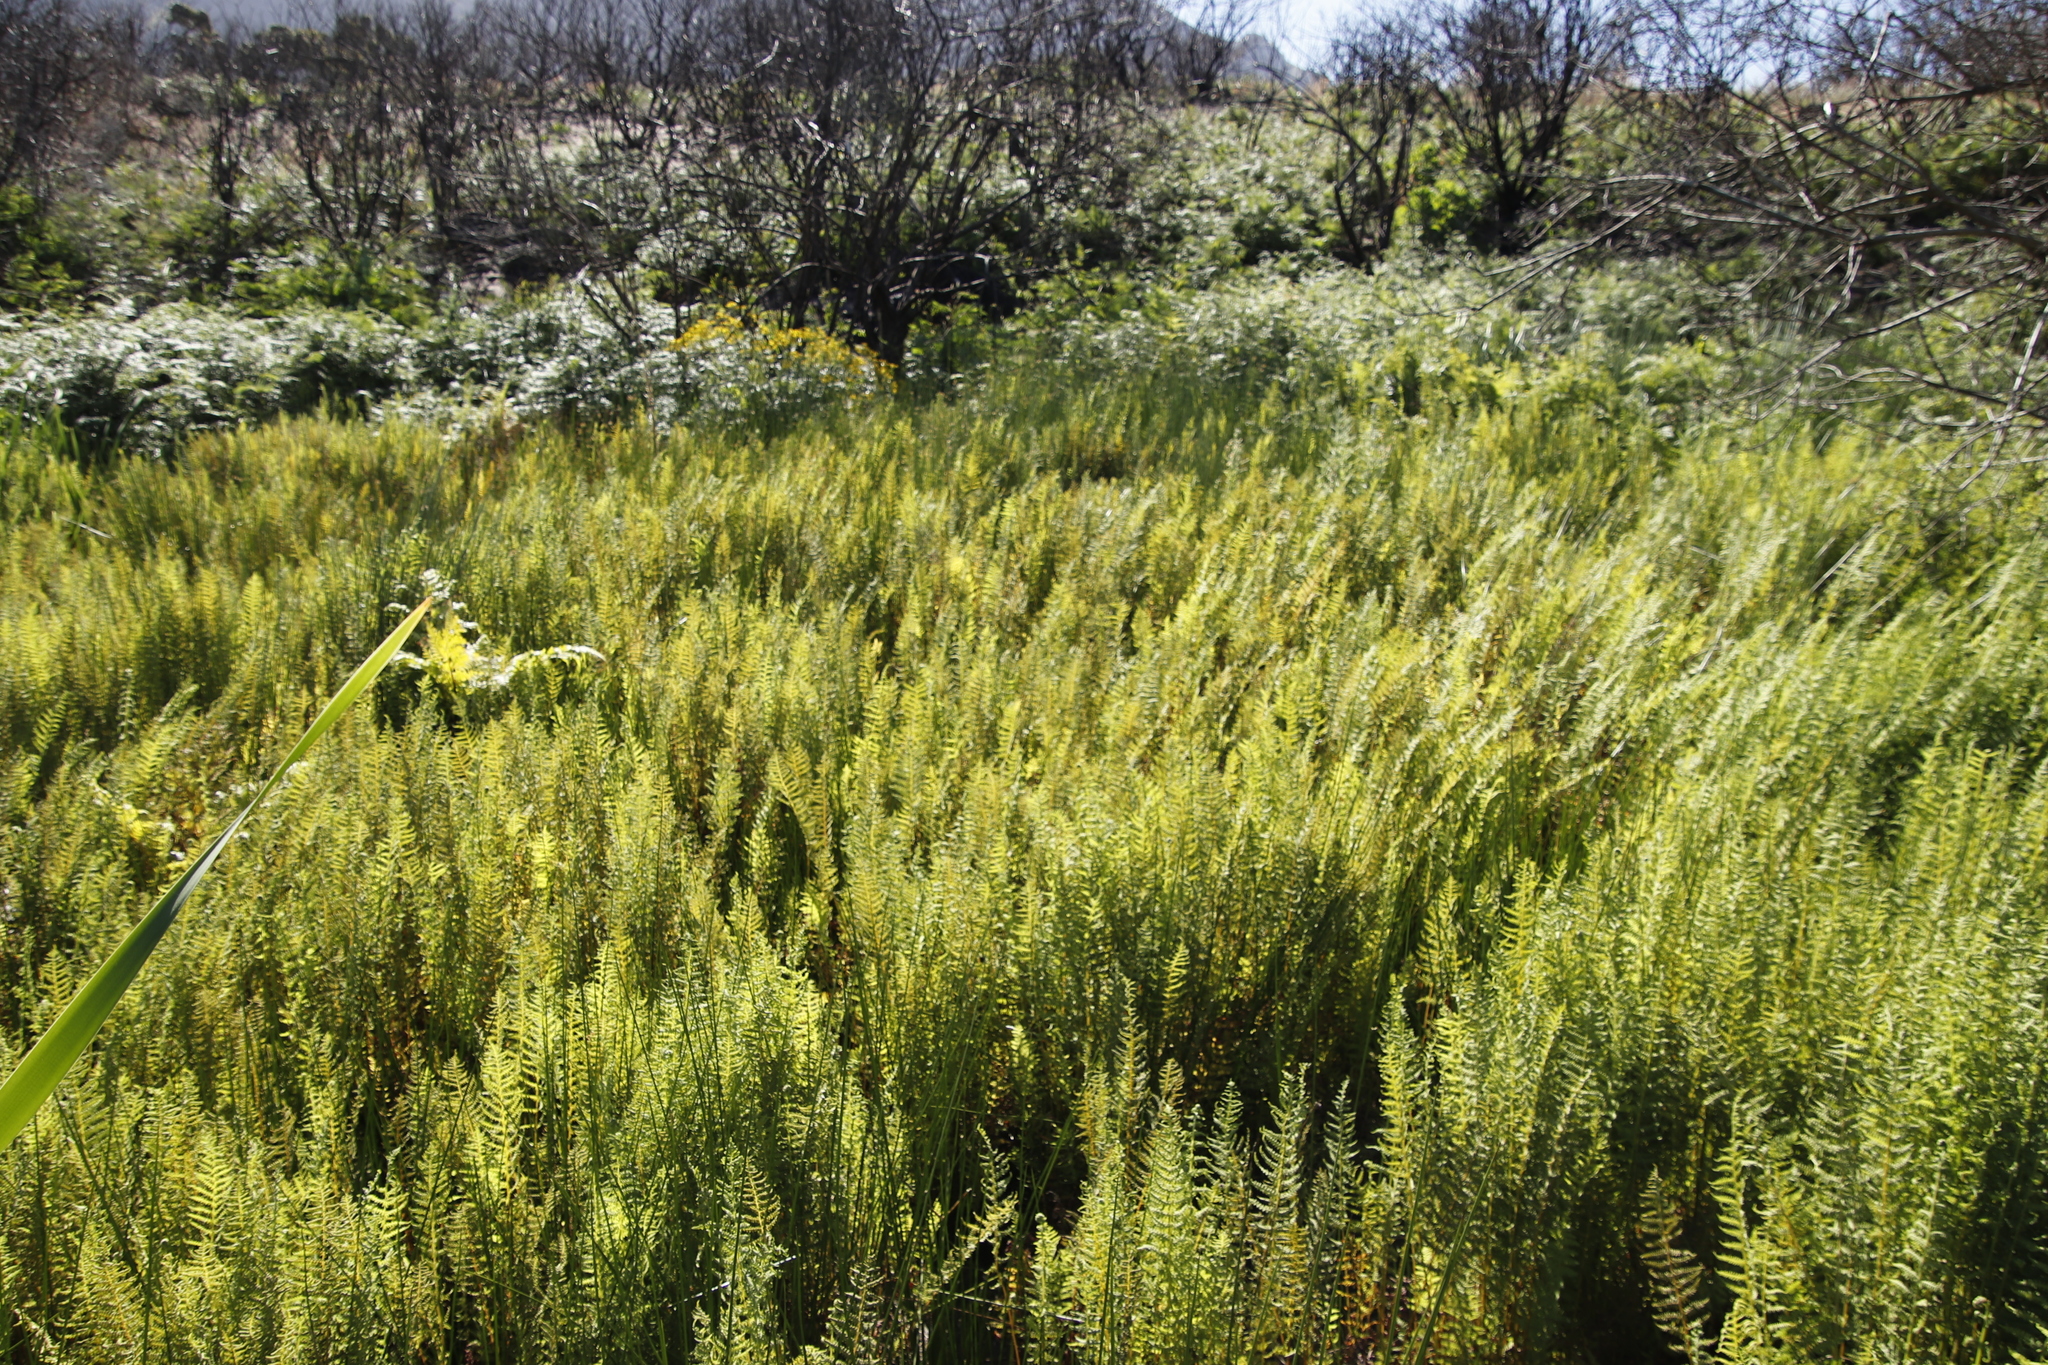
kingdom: Plantae
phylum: Tracheophyta
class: Polypodiopsida
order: Polypodiales
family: Thelypteridaceae
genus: Thelypteris
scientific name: Thelypteris confluens
